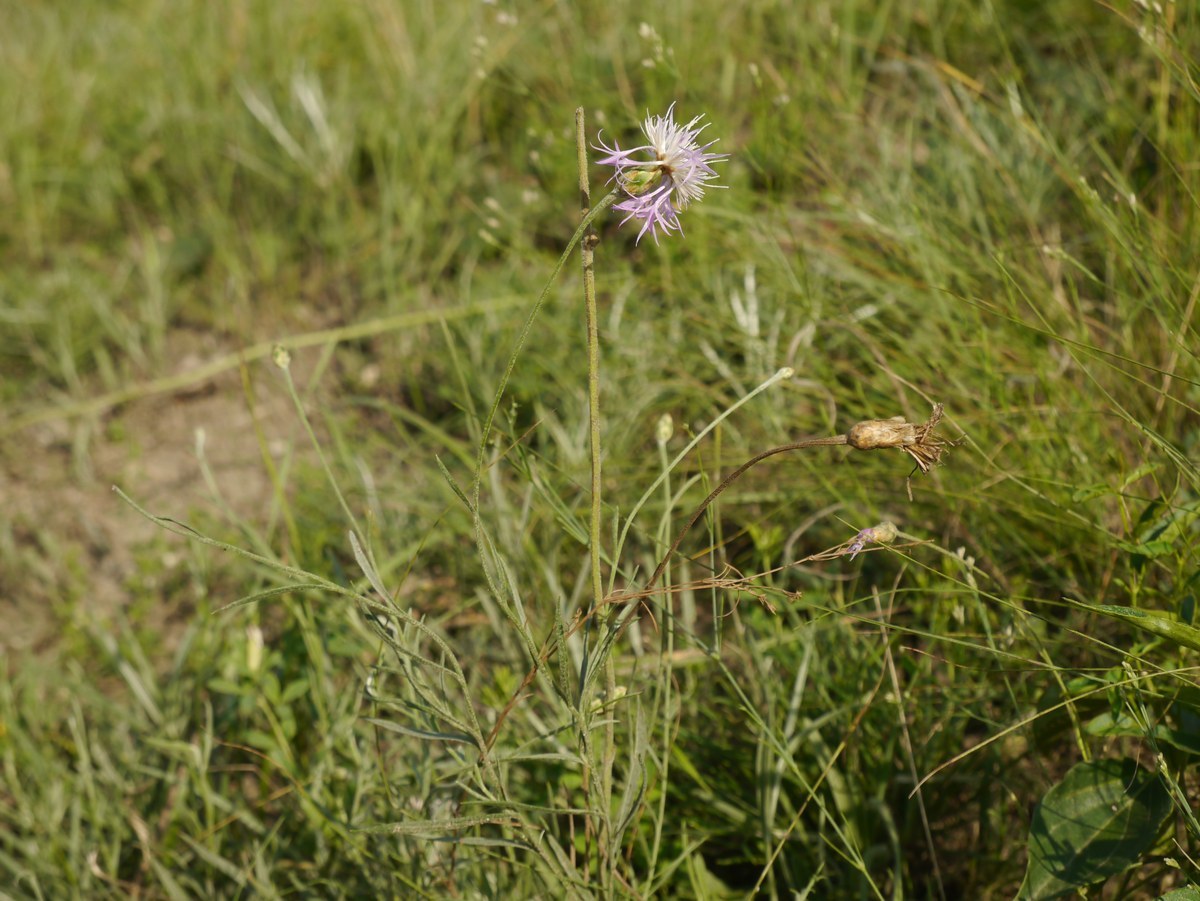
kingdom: Plantae
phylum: Tracheophyta
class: Magnoliopsida
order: Asterales
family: Asteraceae
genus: Psephellus
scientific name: Psephellus trinervius
